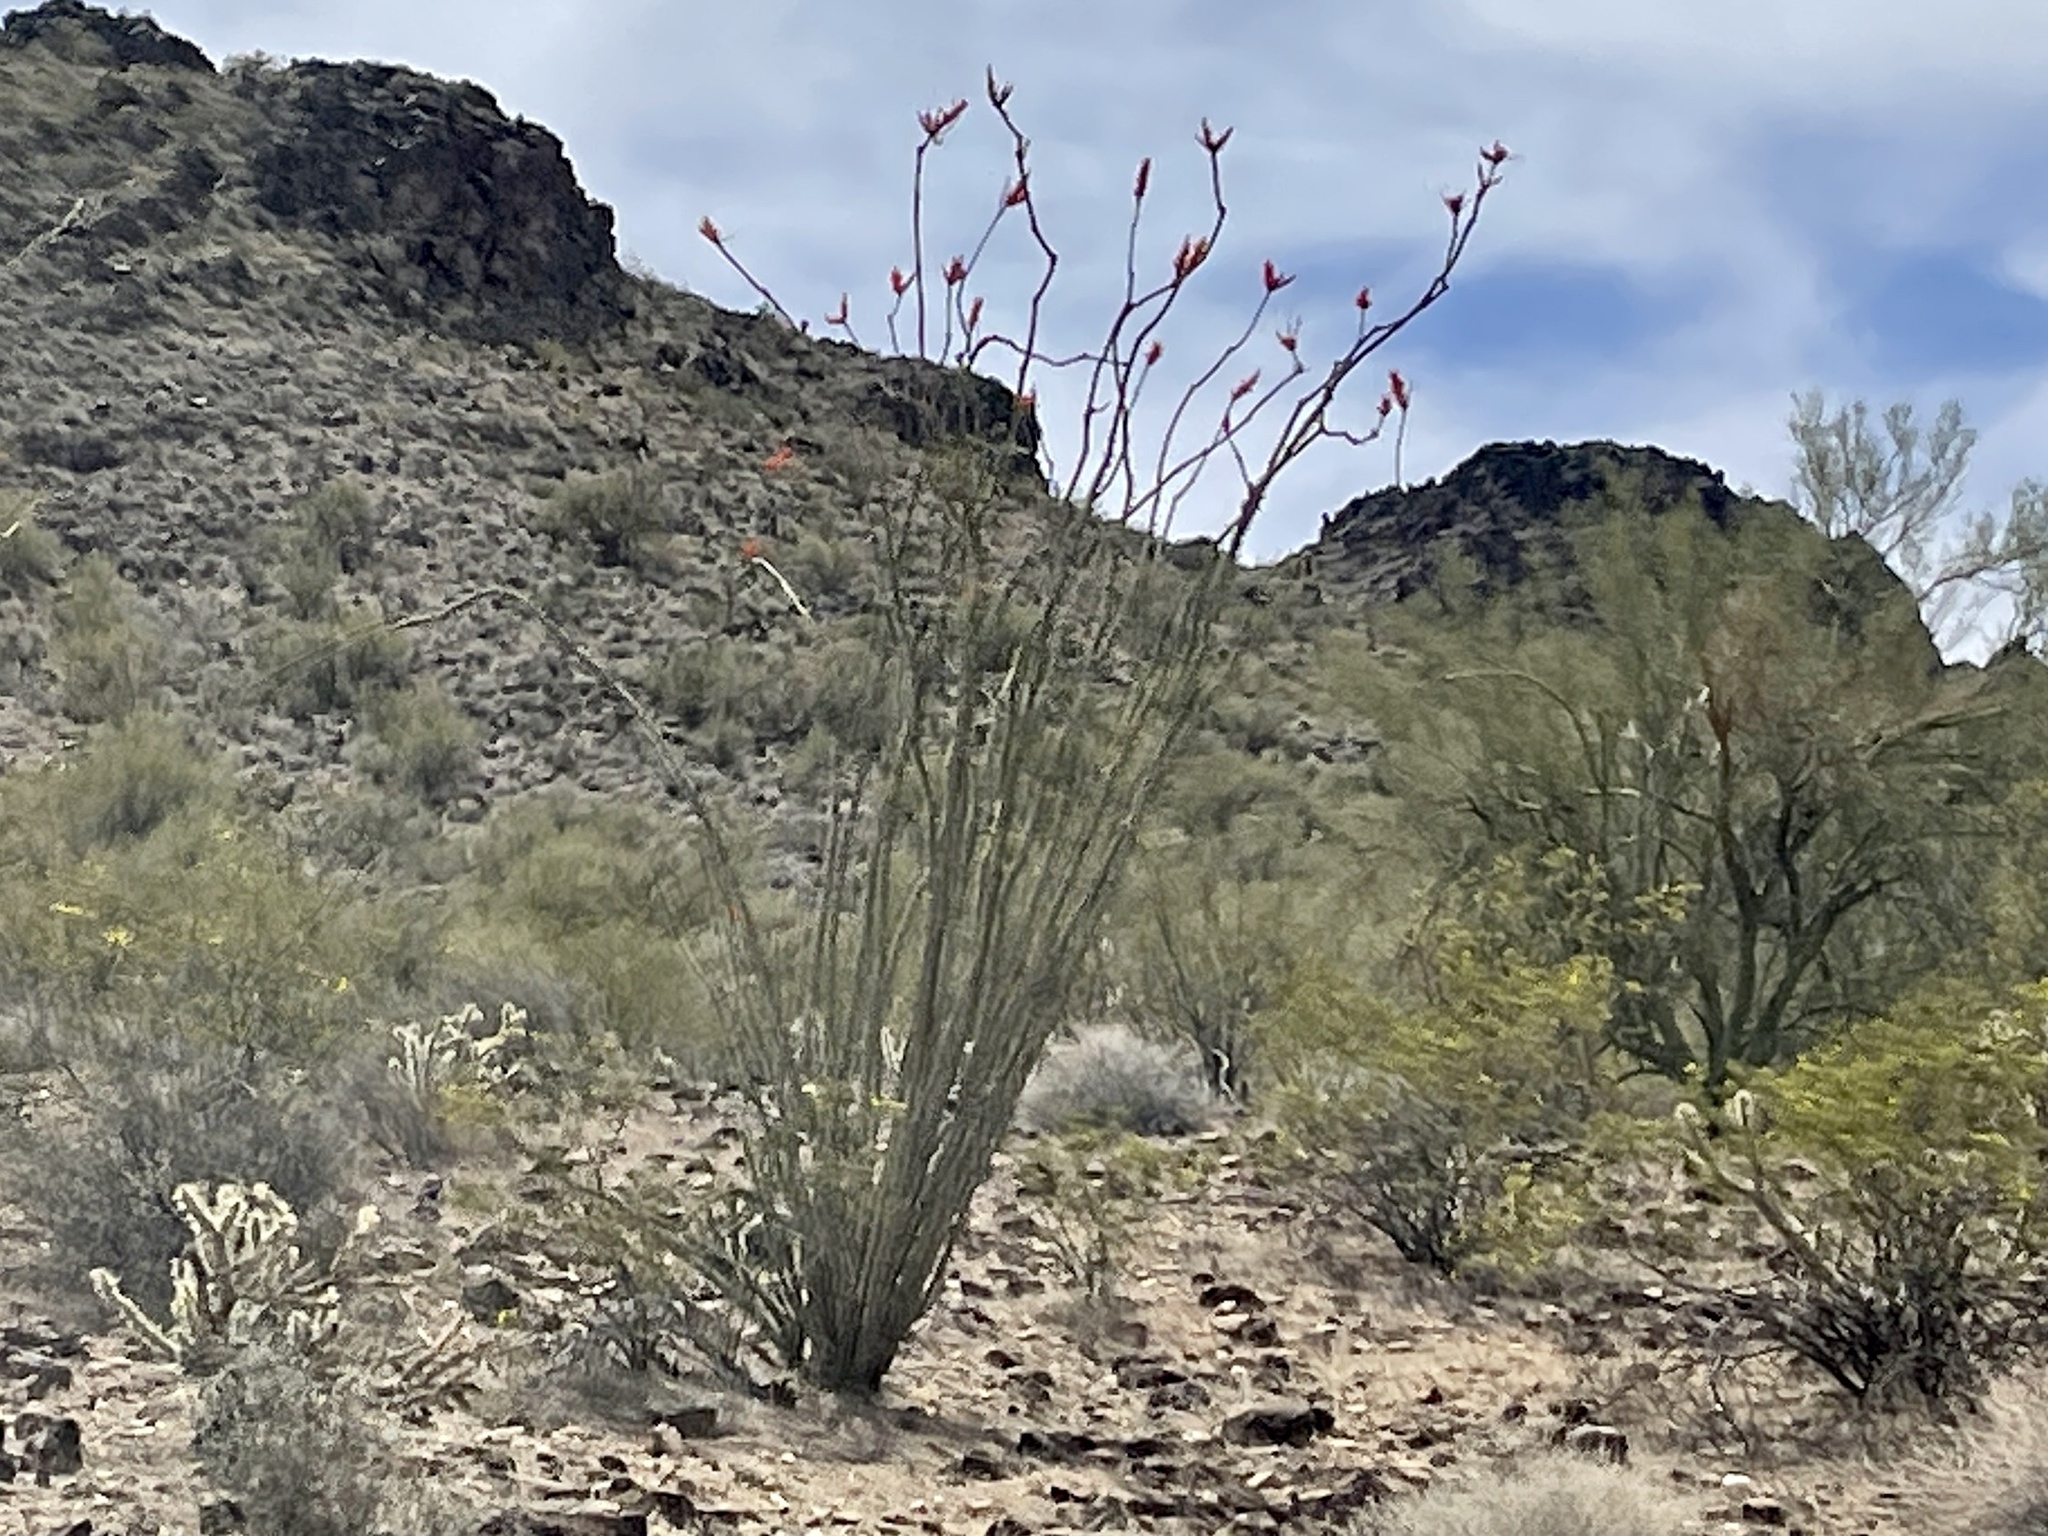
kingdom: Plantae
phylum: Tracheophyta
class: Magnoliopsida
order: Ericales
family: Fouquieriaceae
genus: Fouquieria
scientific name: Fouquieria splendens
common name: Vine-cactus
